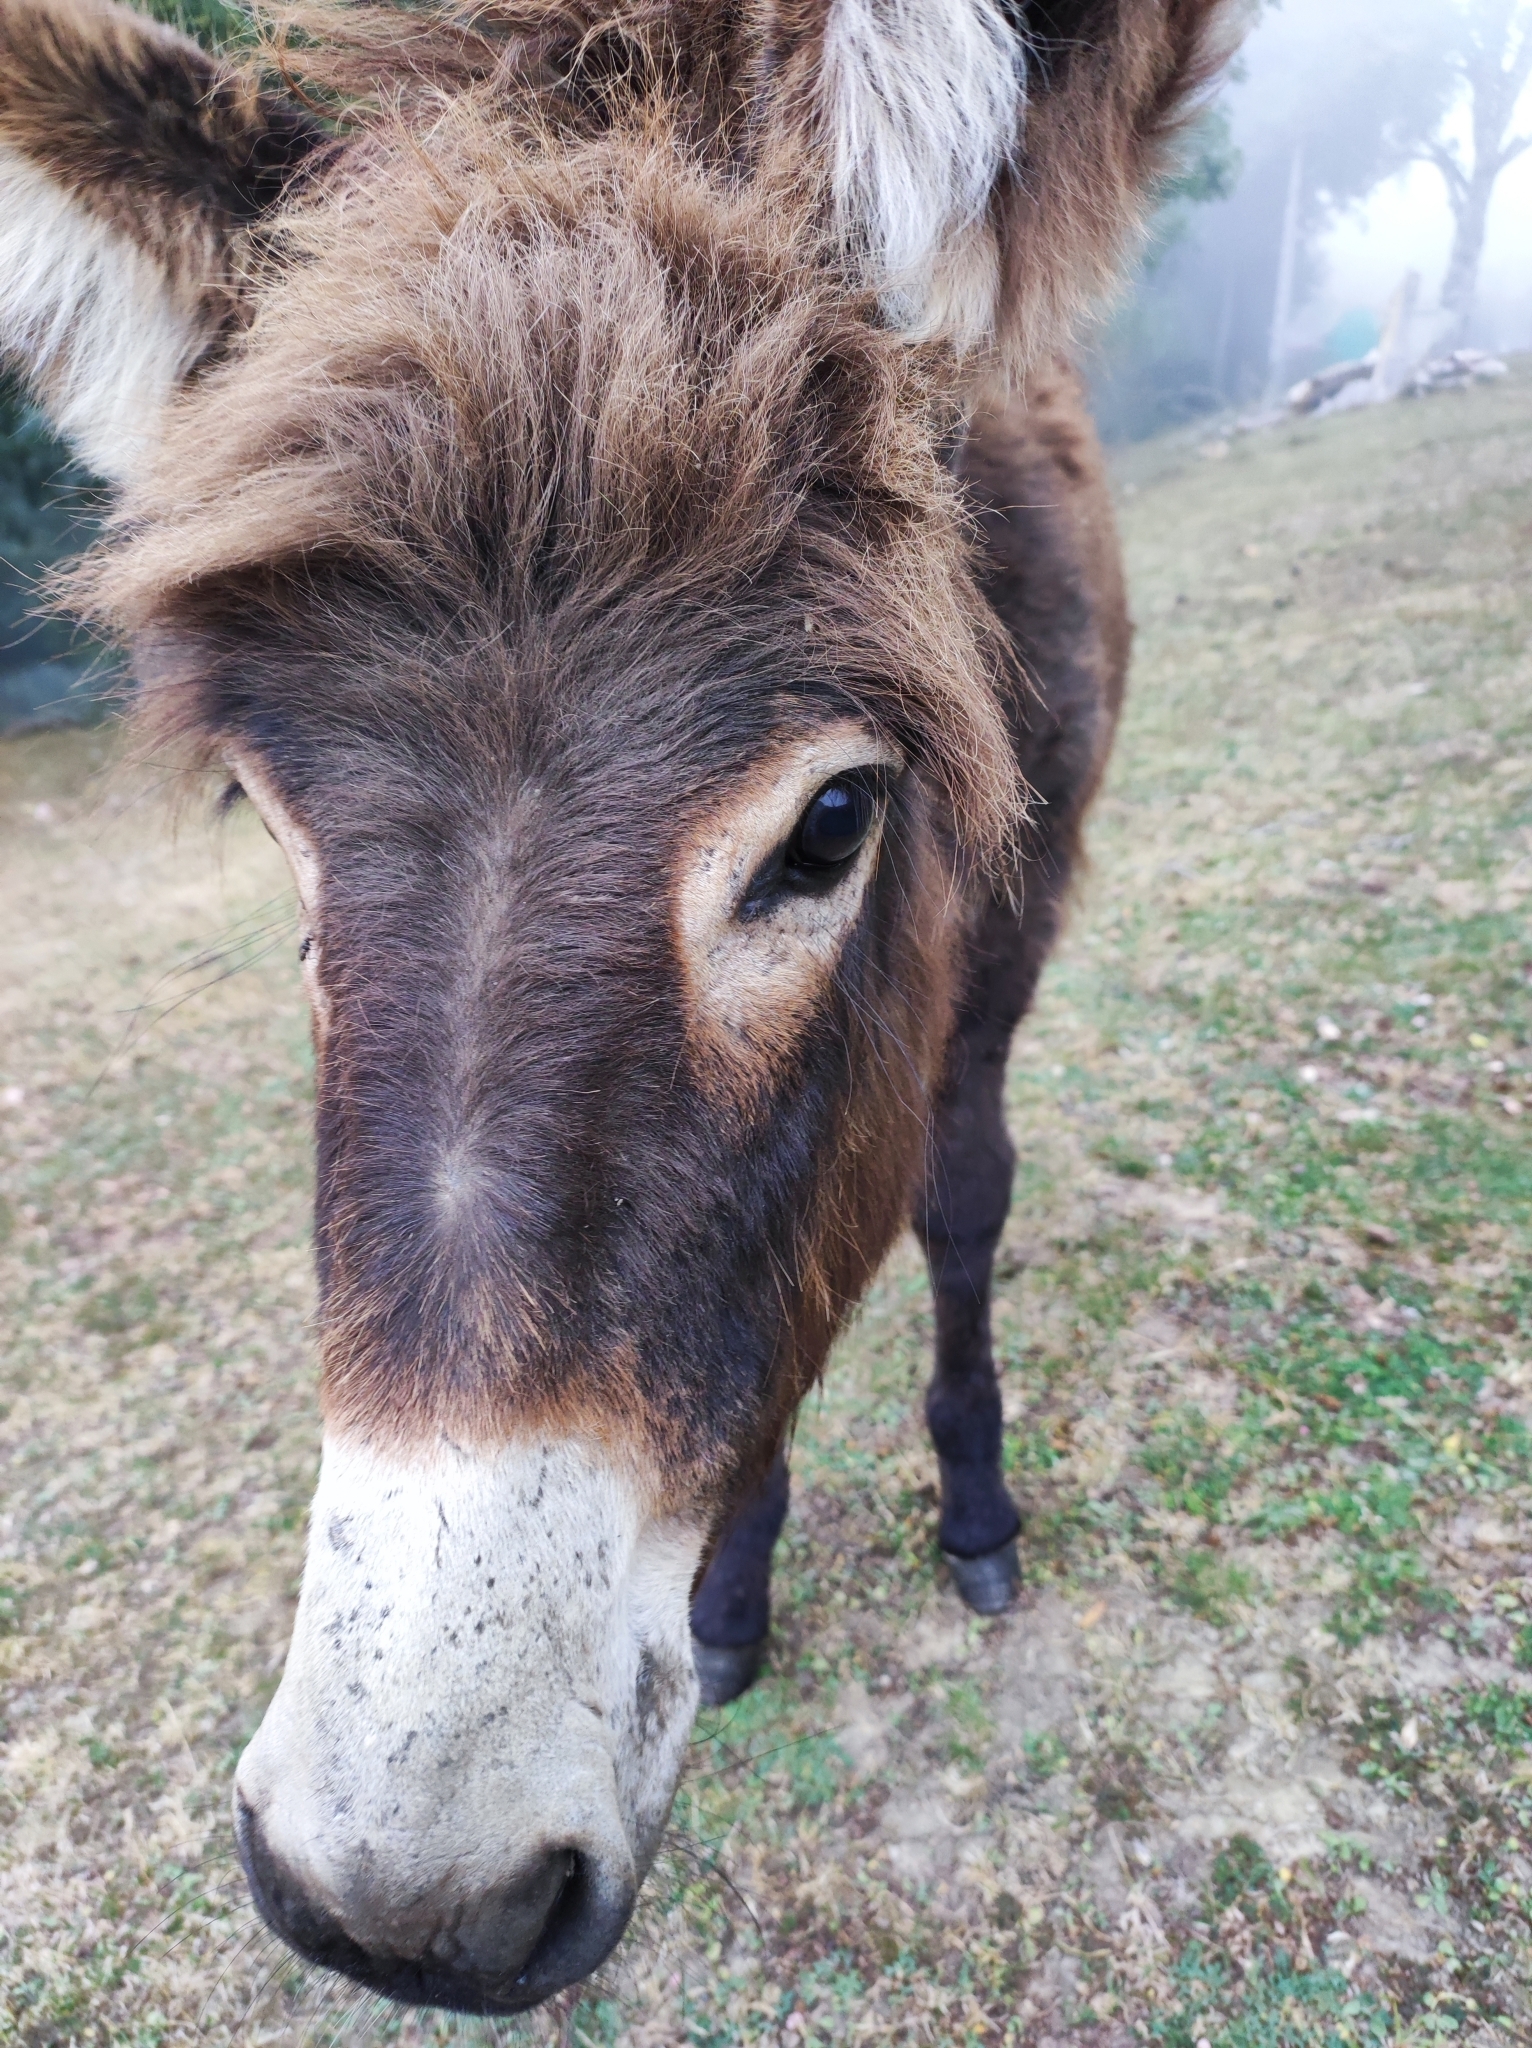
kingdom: Animalia
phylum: Chordata
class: Mammalia
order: Perissodactyla
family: Equidae
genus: Equus
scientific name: Equus asinus
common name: Ass
